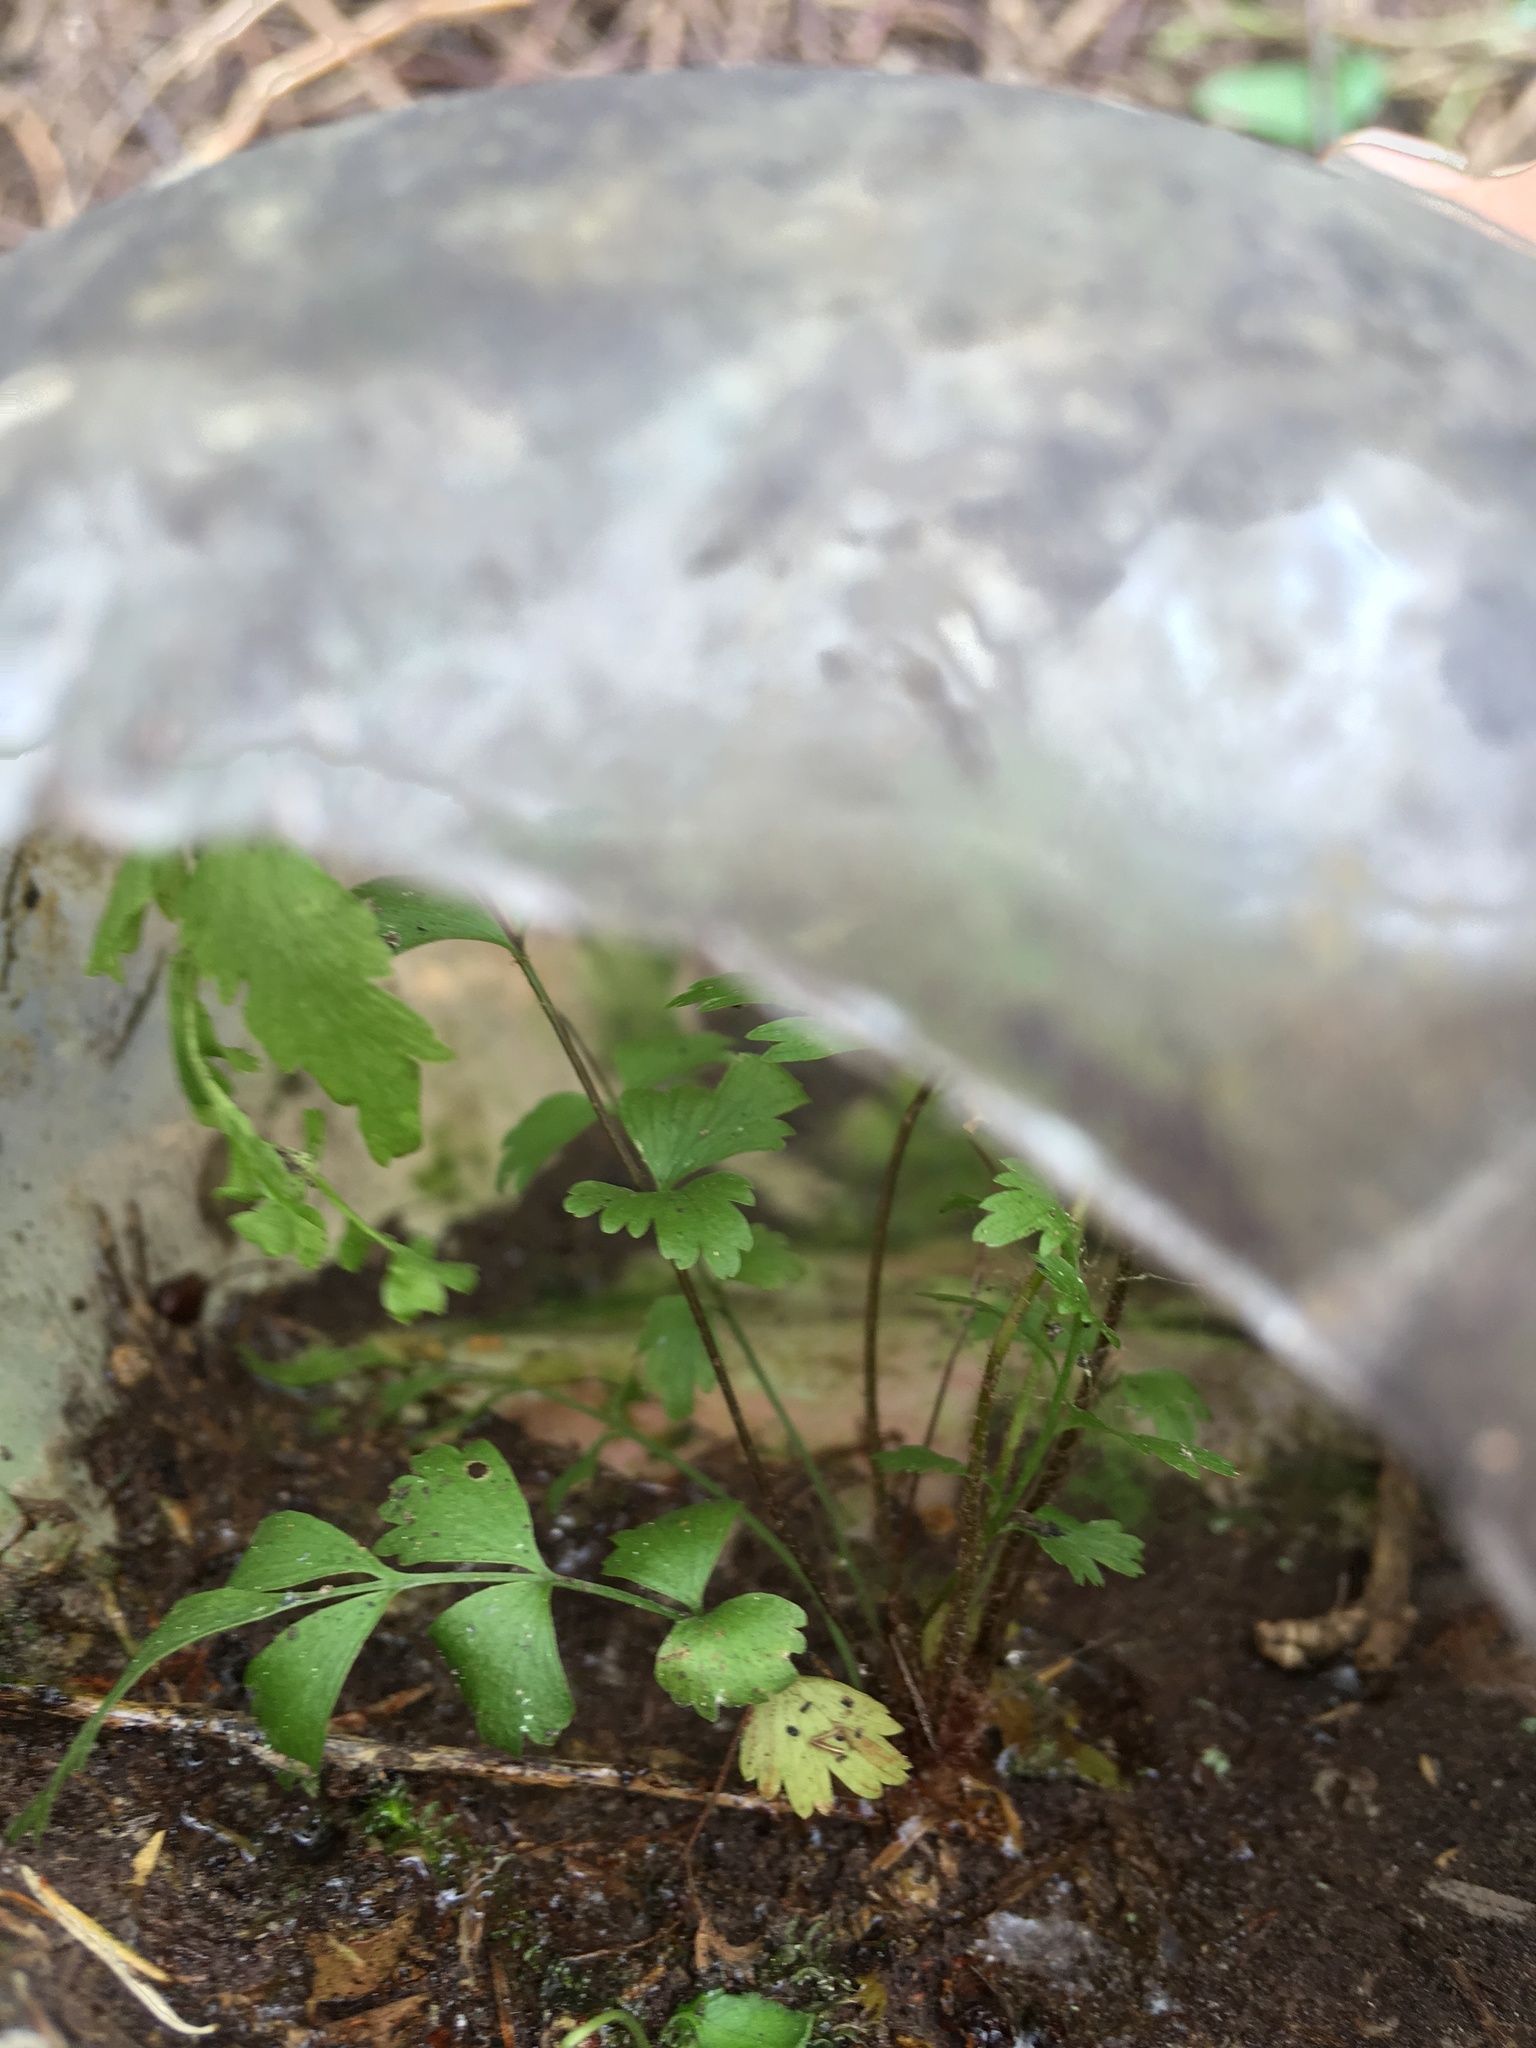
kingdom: Plantae
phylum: Tracheophyta
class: Polypodiopsida
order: Polypodiales
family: Aspleniaceae
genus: Asplenium
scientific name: Asplenium polyodon
